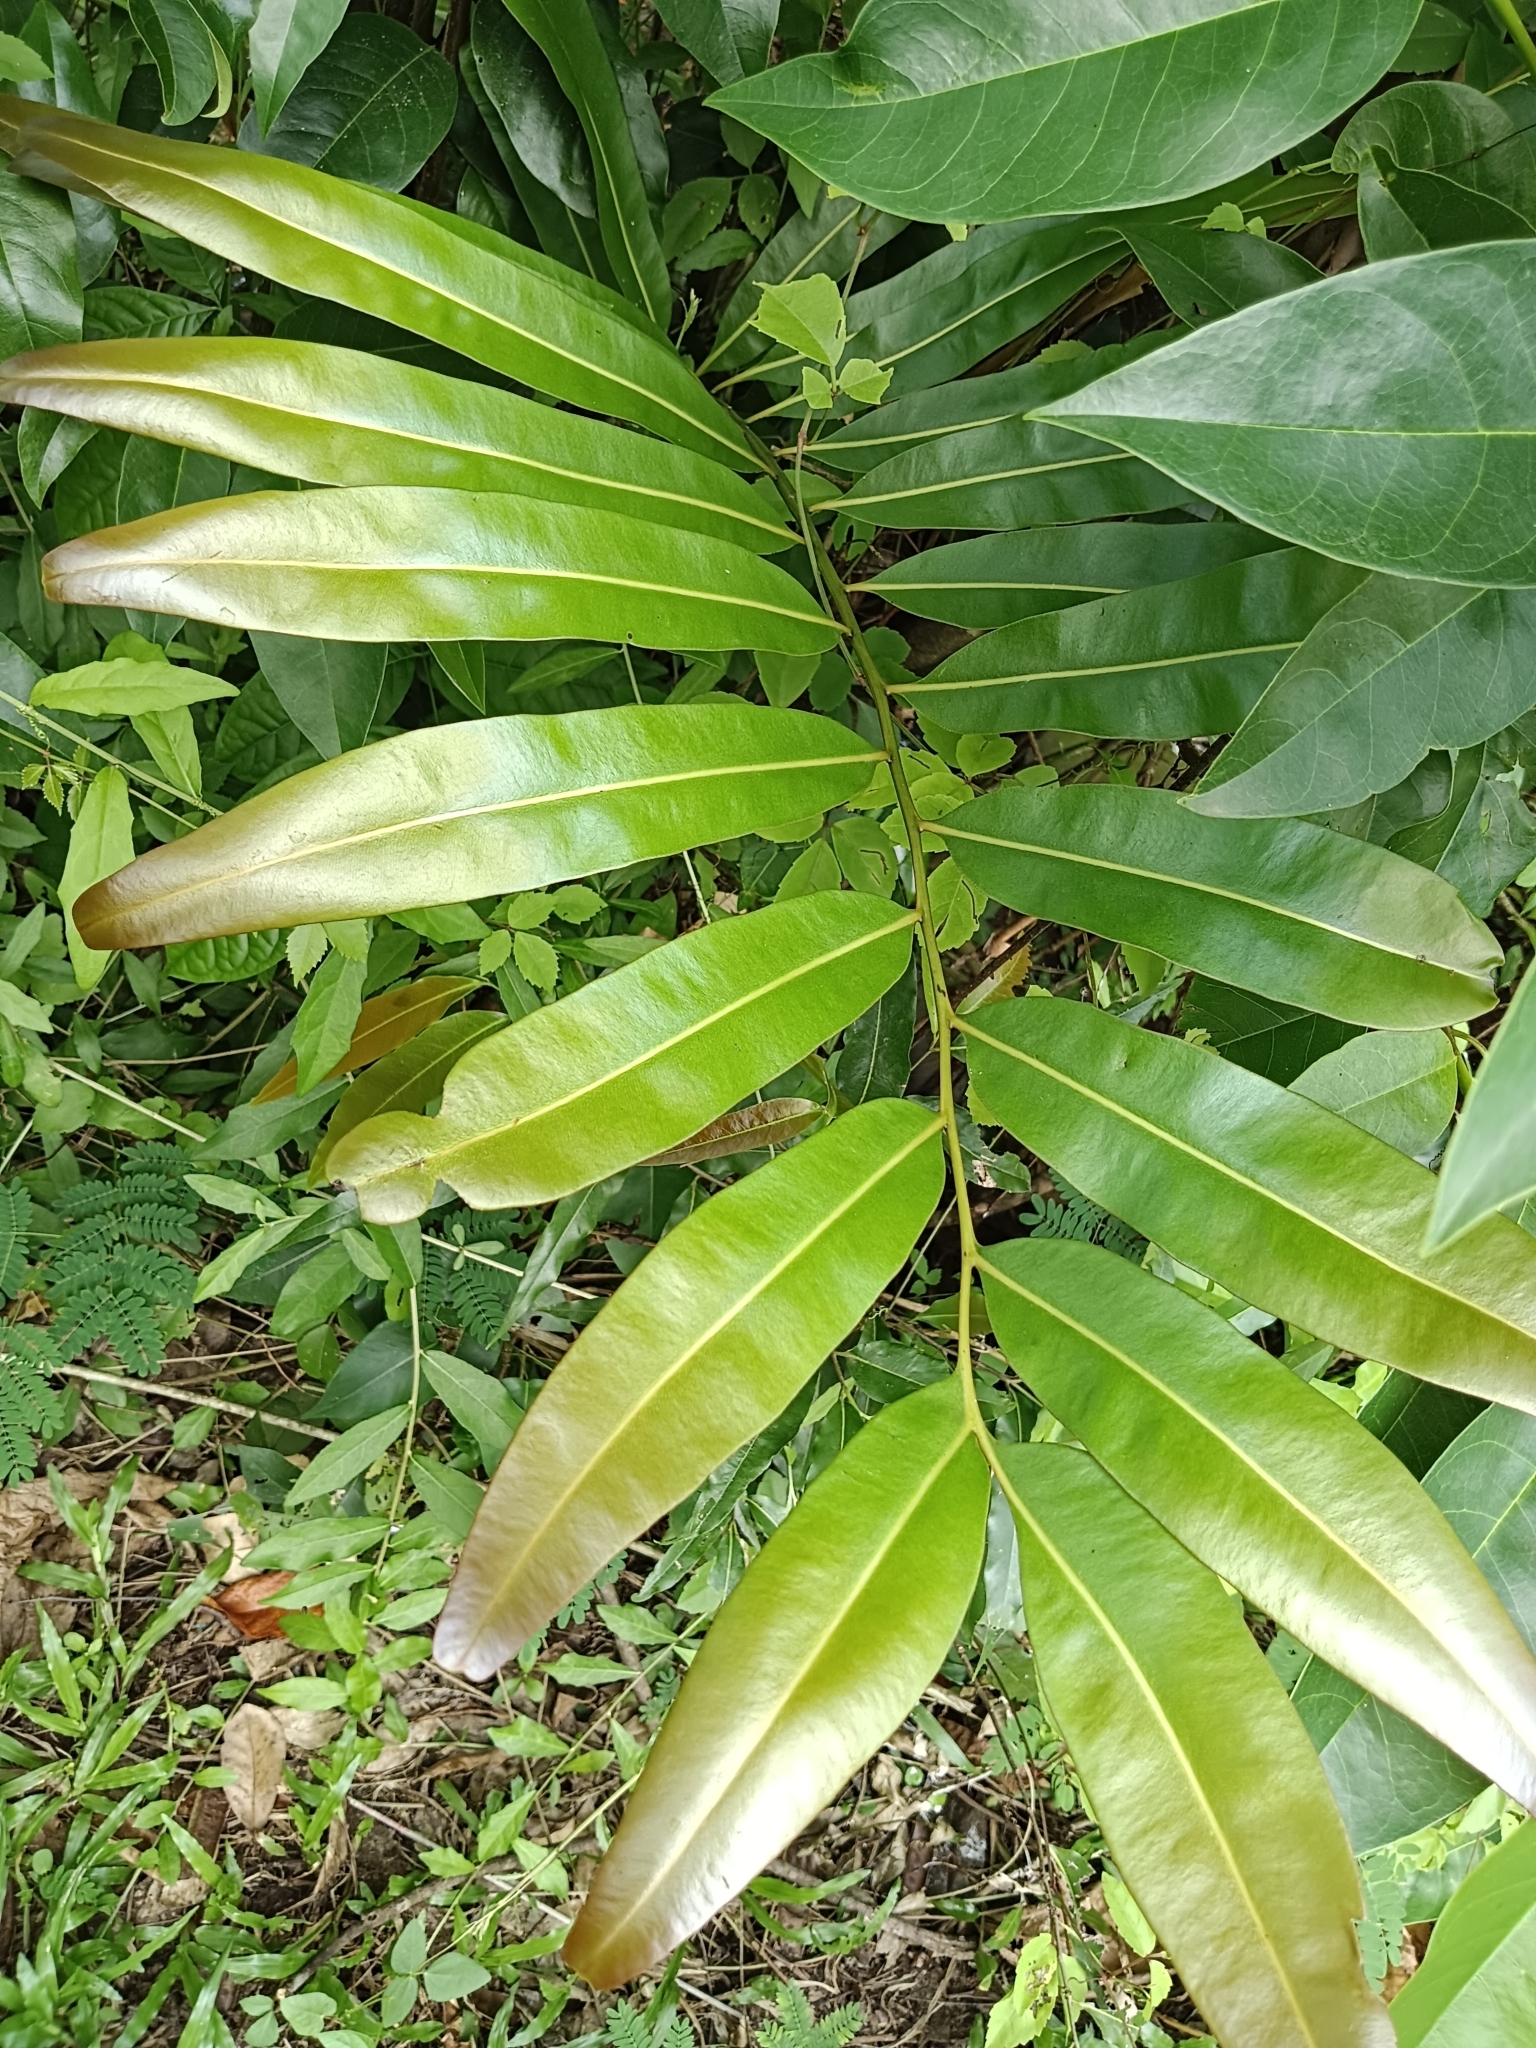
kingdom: Plantae
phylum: Tracheophyta
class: Polypodiopsida
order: Polypodiales
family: Pteridaceae
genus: Acrostichum
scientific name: Acrostichum aureum
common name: Leather fern
